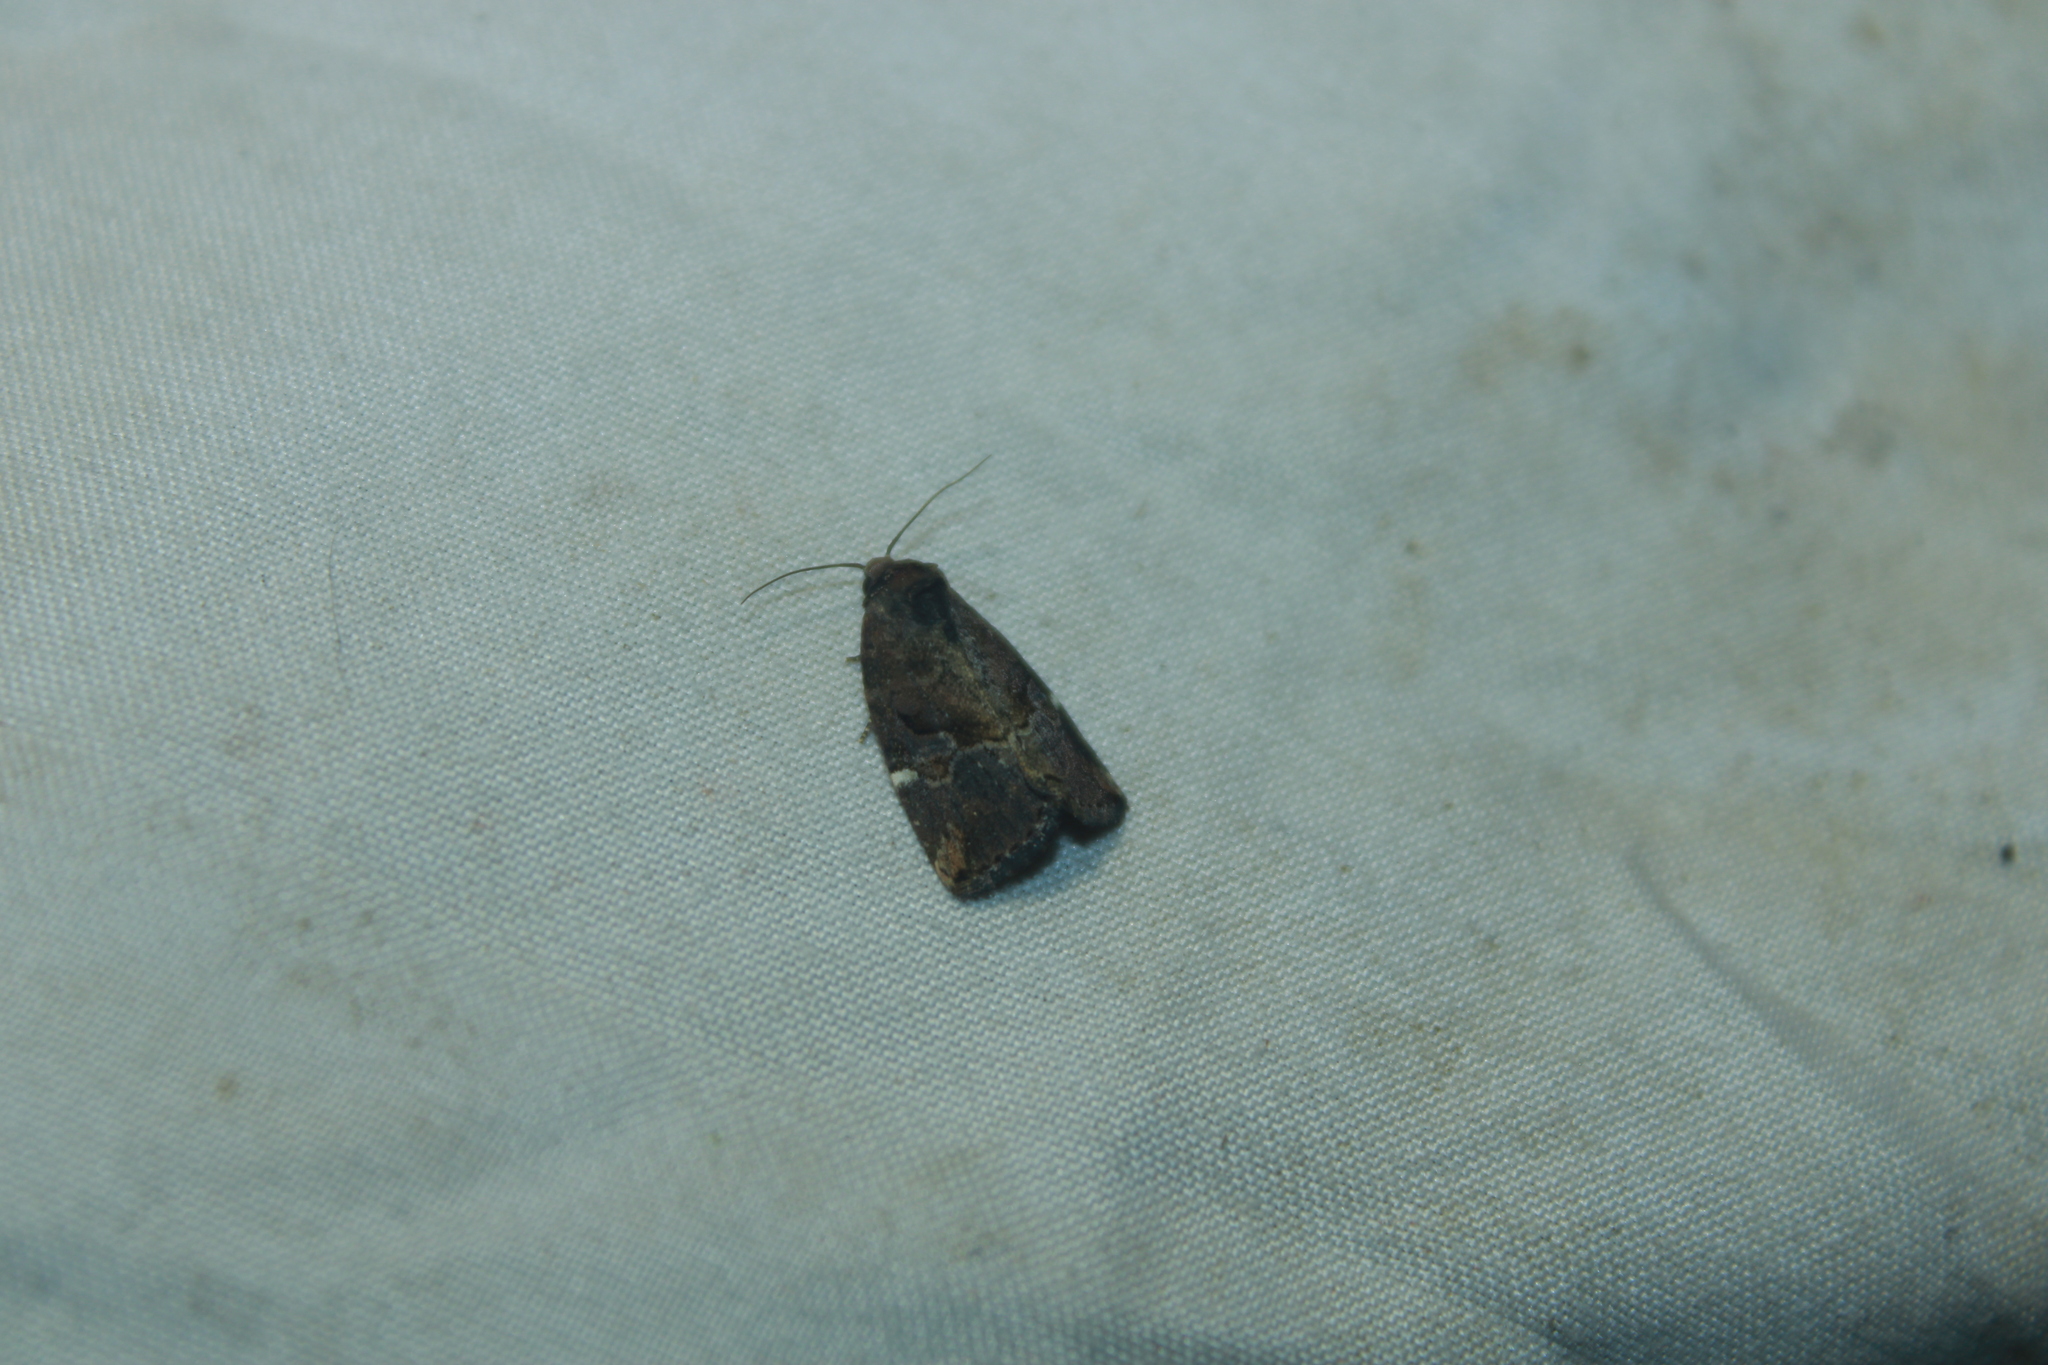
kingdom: Animalia
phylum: Arthropoda
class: Insecta
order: Lepidoptera
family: Noctuidae
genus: Elaphria
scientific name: Elaphria versicolor
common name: Fir harlequin
